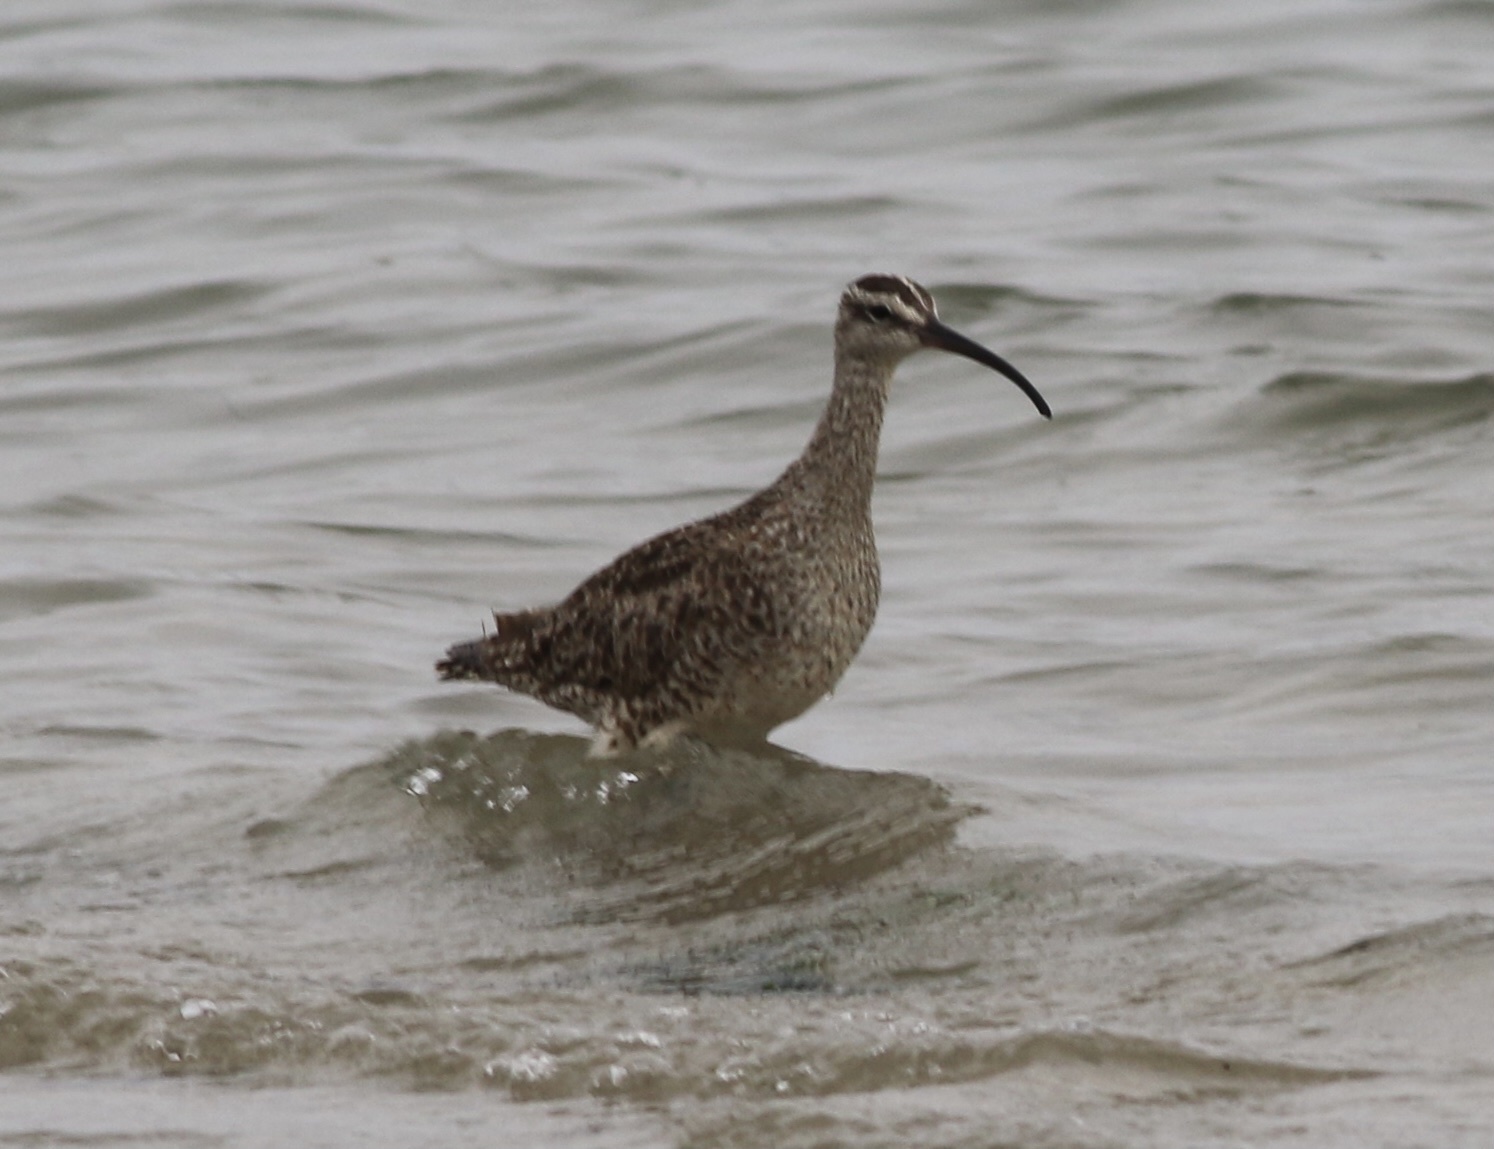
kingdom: Animalia
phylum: Chordata
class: Aves
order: Charadriiformes
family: Scolopacidae
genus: Numenius
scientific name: Numenius phaeopus
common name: Whimbrel
